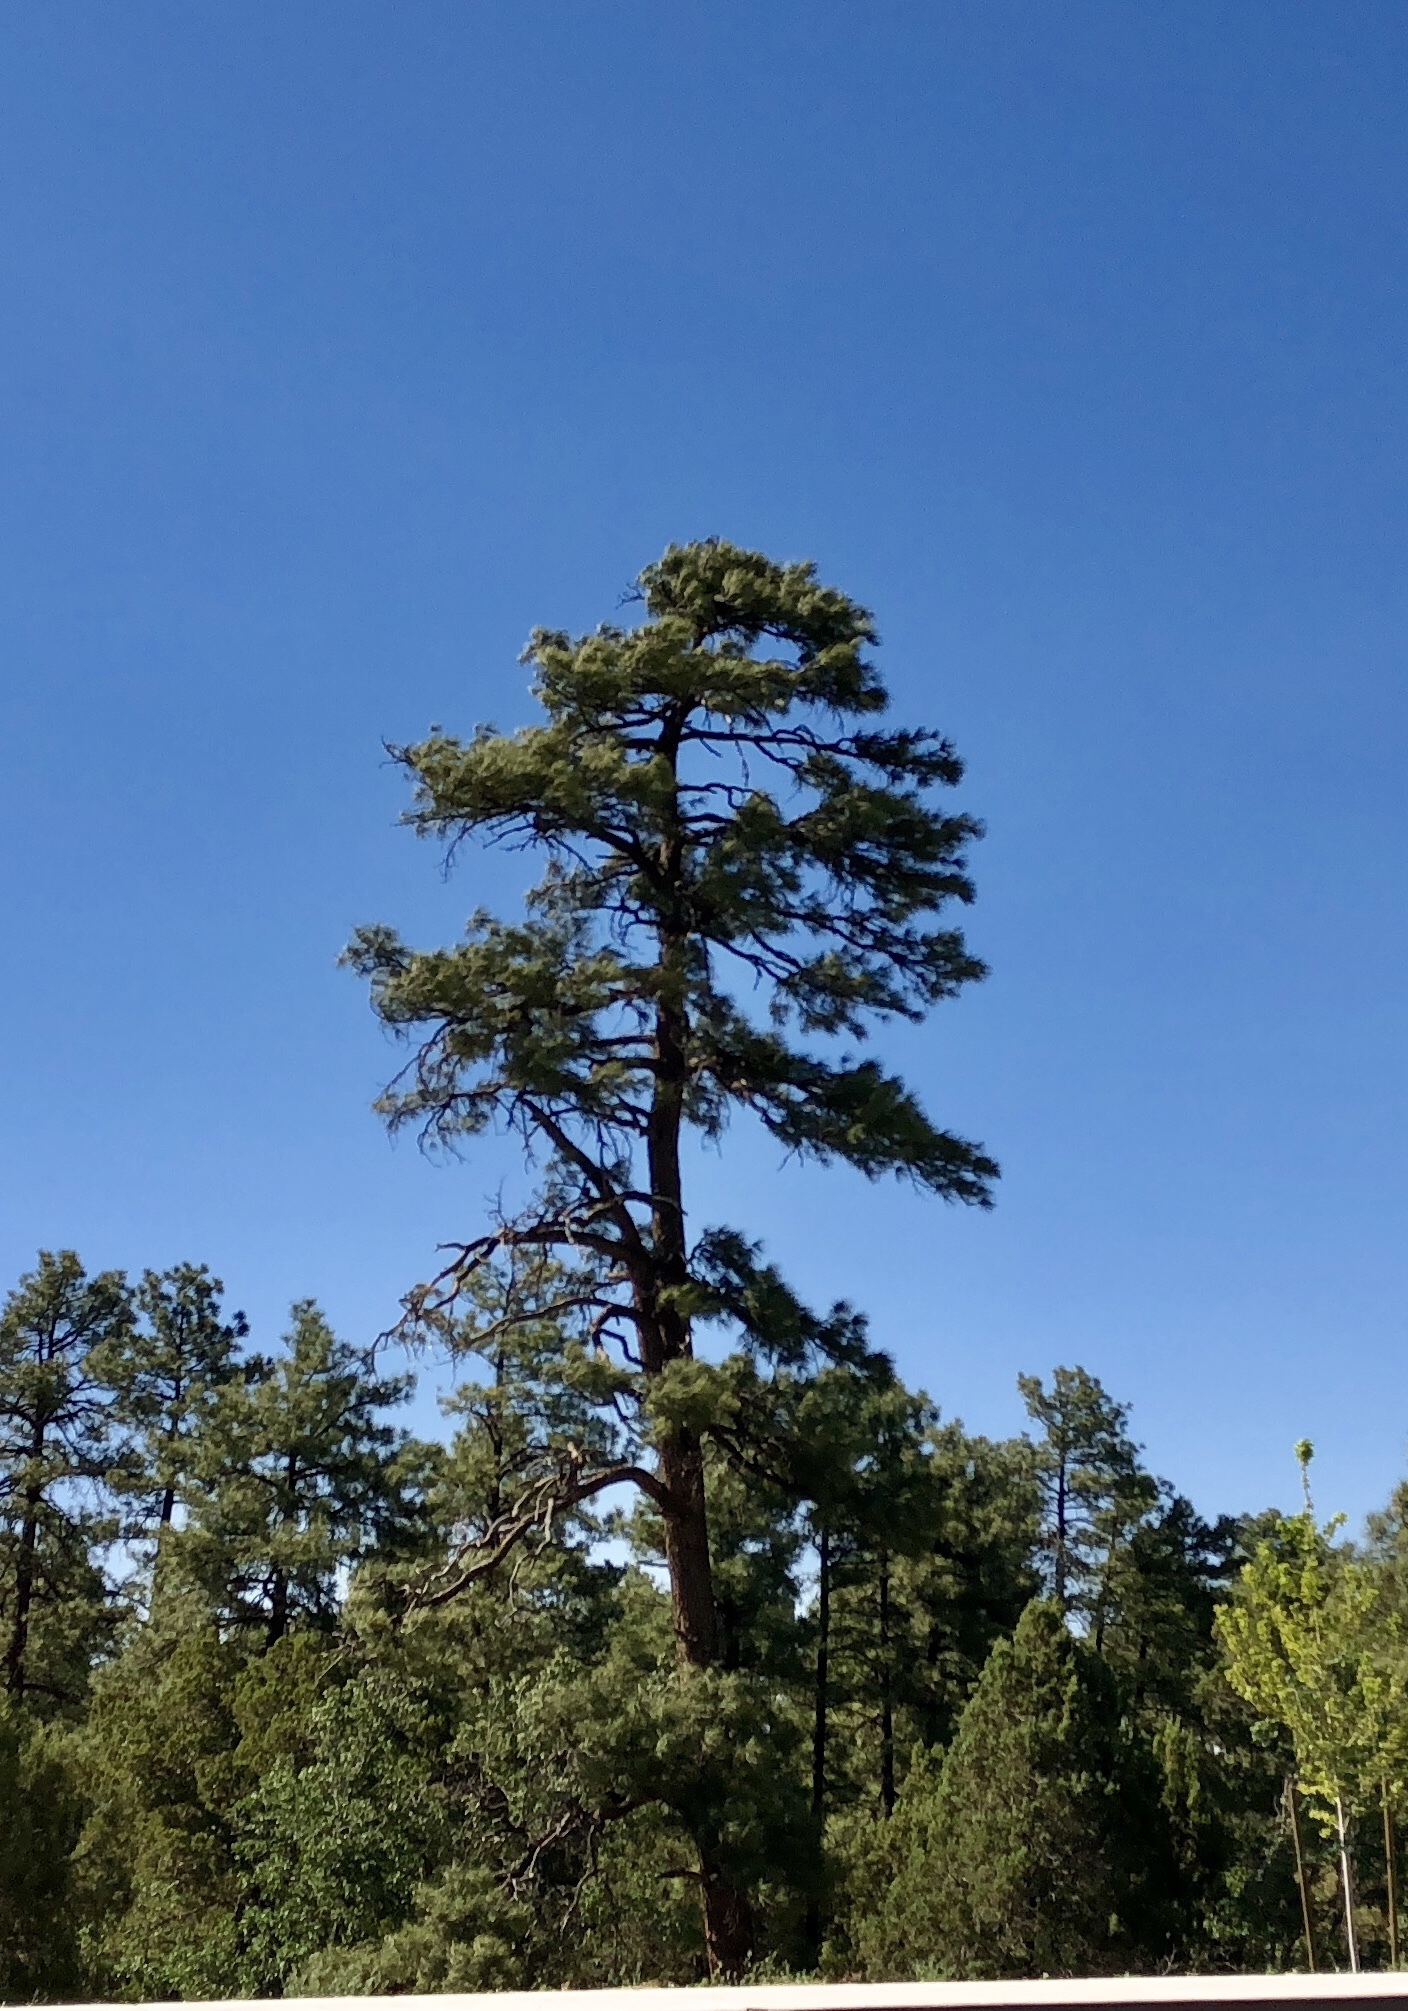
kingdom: Plantae
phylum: Tracheophyta
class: Pinopsida
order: Pinales
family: Pinaceae
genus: Pinus
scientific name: Pinus ponderosa
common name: Western yellow-pine
